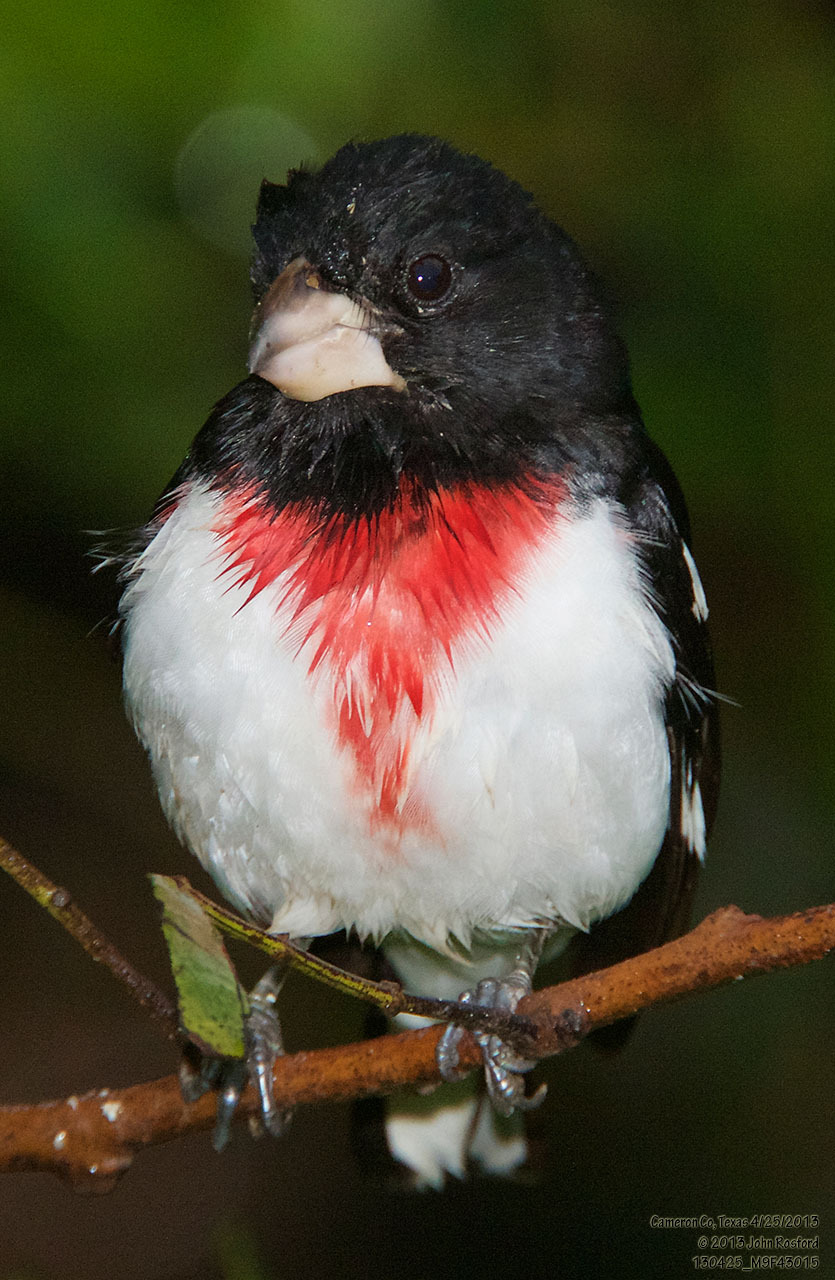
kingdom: Animalia
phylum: Chordata
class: Aves
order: Passeriformes
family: Cardinalidae
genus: Pheucticus
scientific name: Pheucticus ludovicianus
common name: Rose-breasted grosbeak
